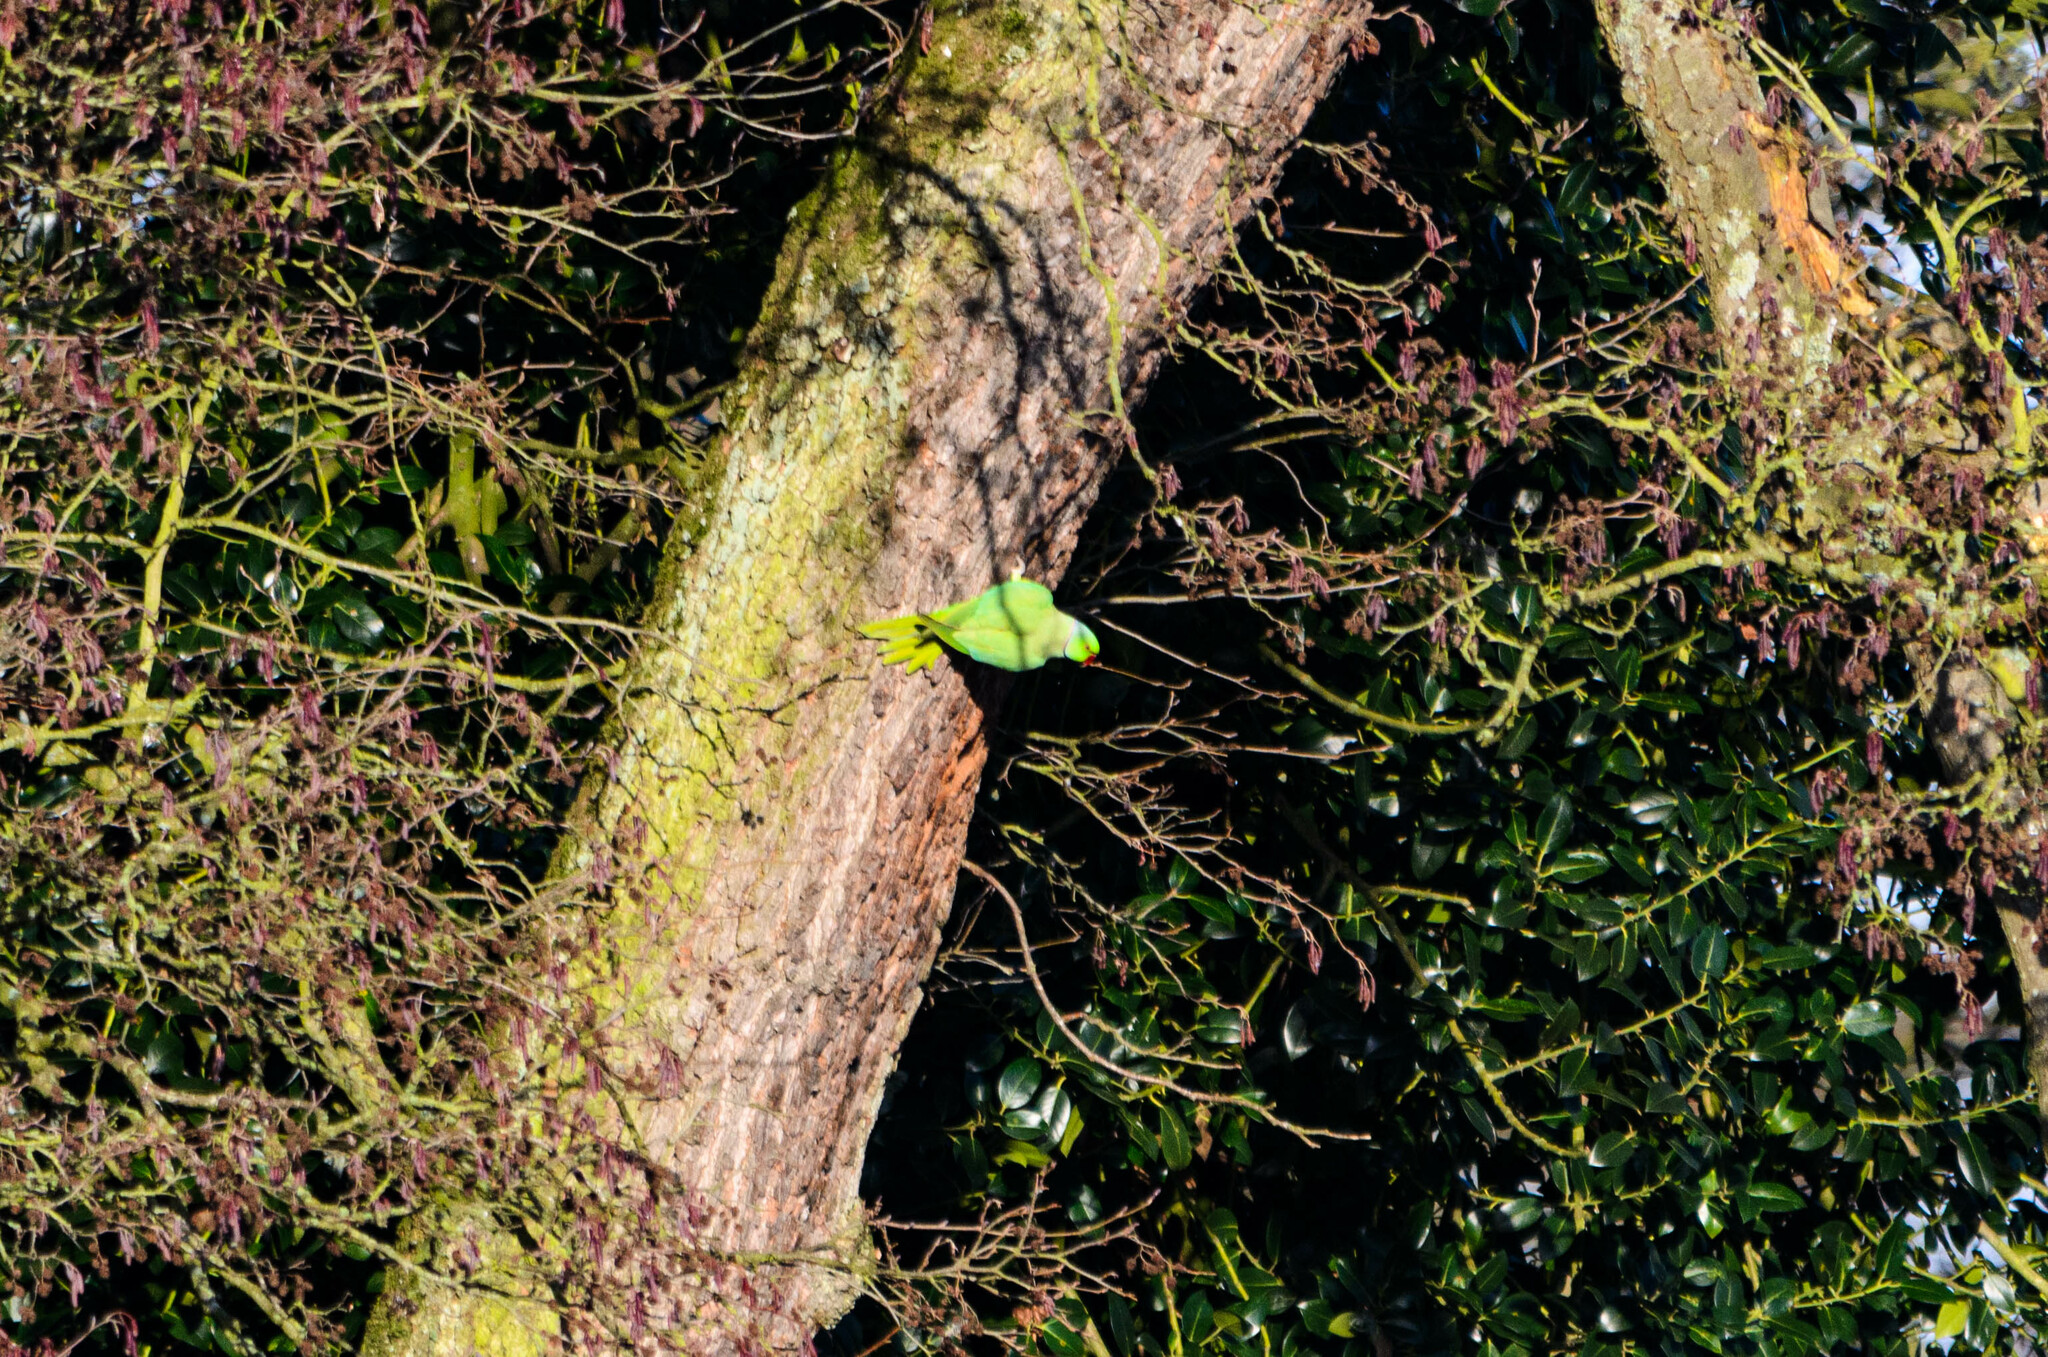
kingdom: Animalia
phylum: Chordata
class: Aves
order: Psittaciformes
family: Psittacidae
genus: Psittacula
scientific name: Psittacula krameri
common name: Rose-ringed parakeet
